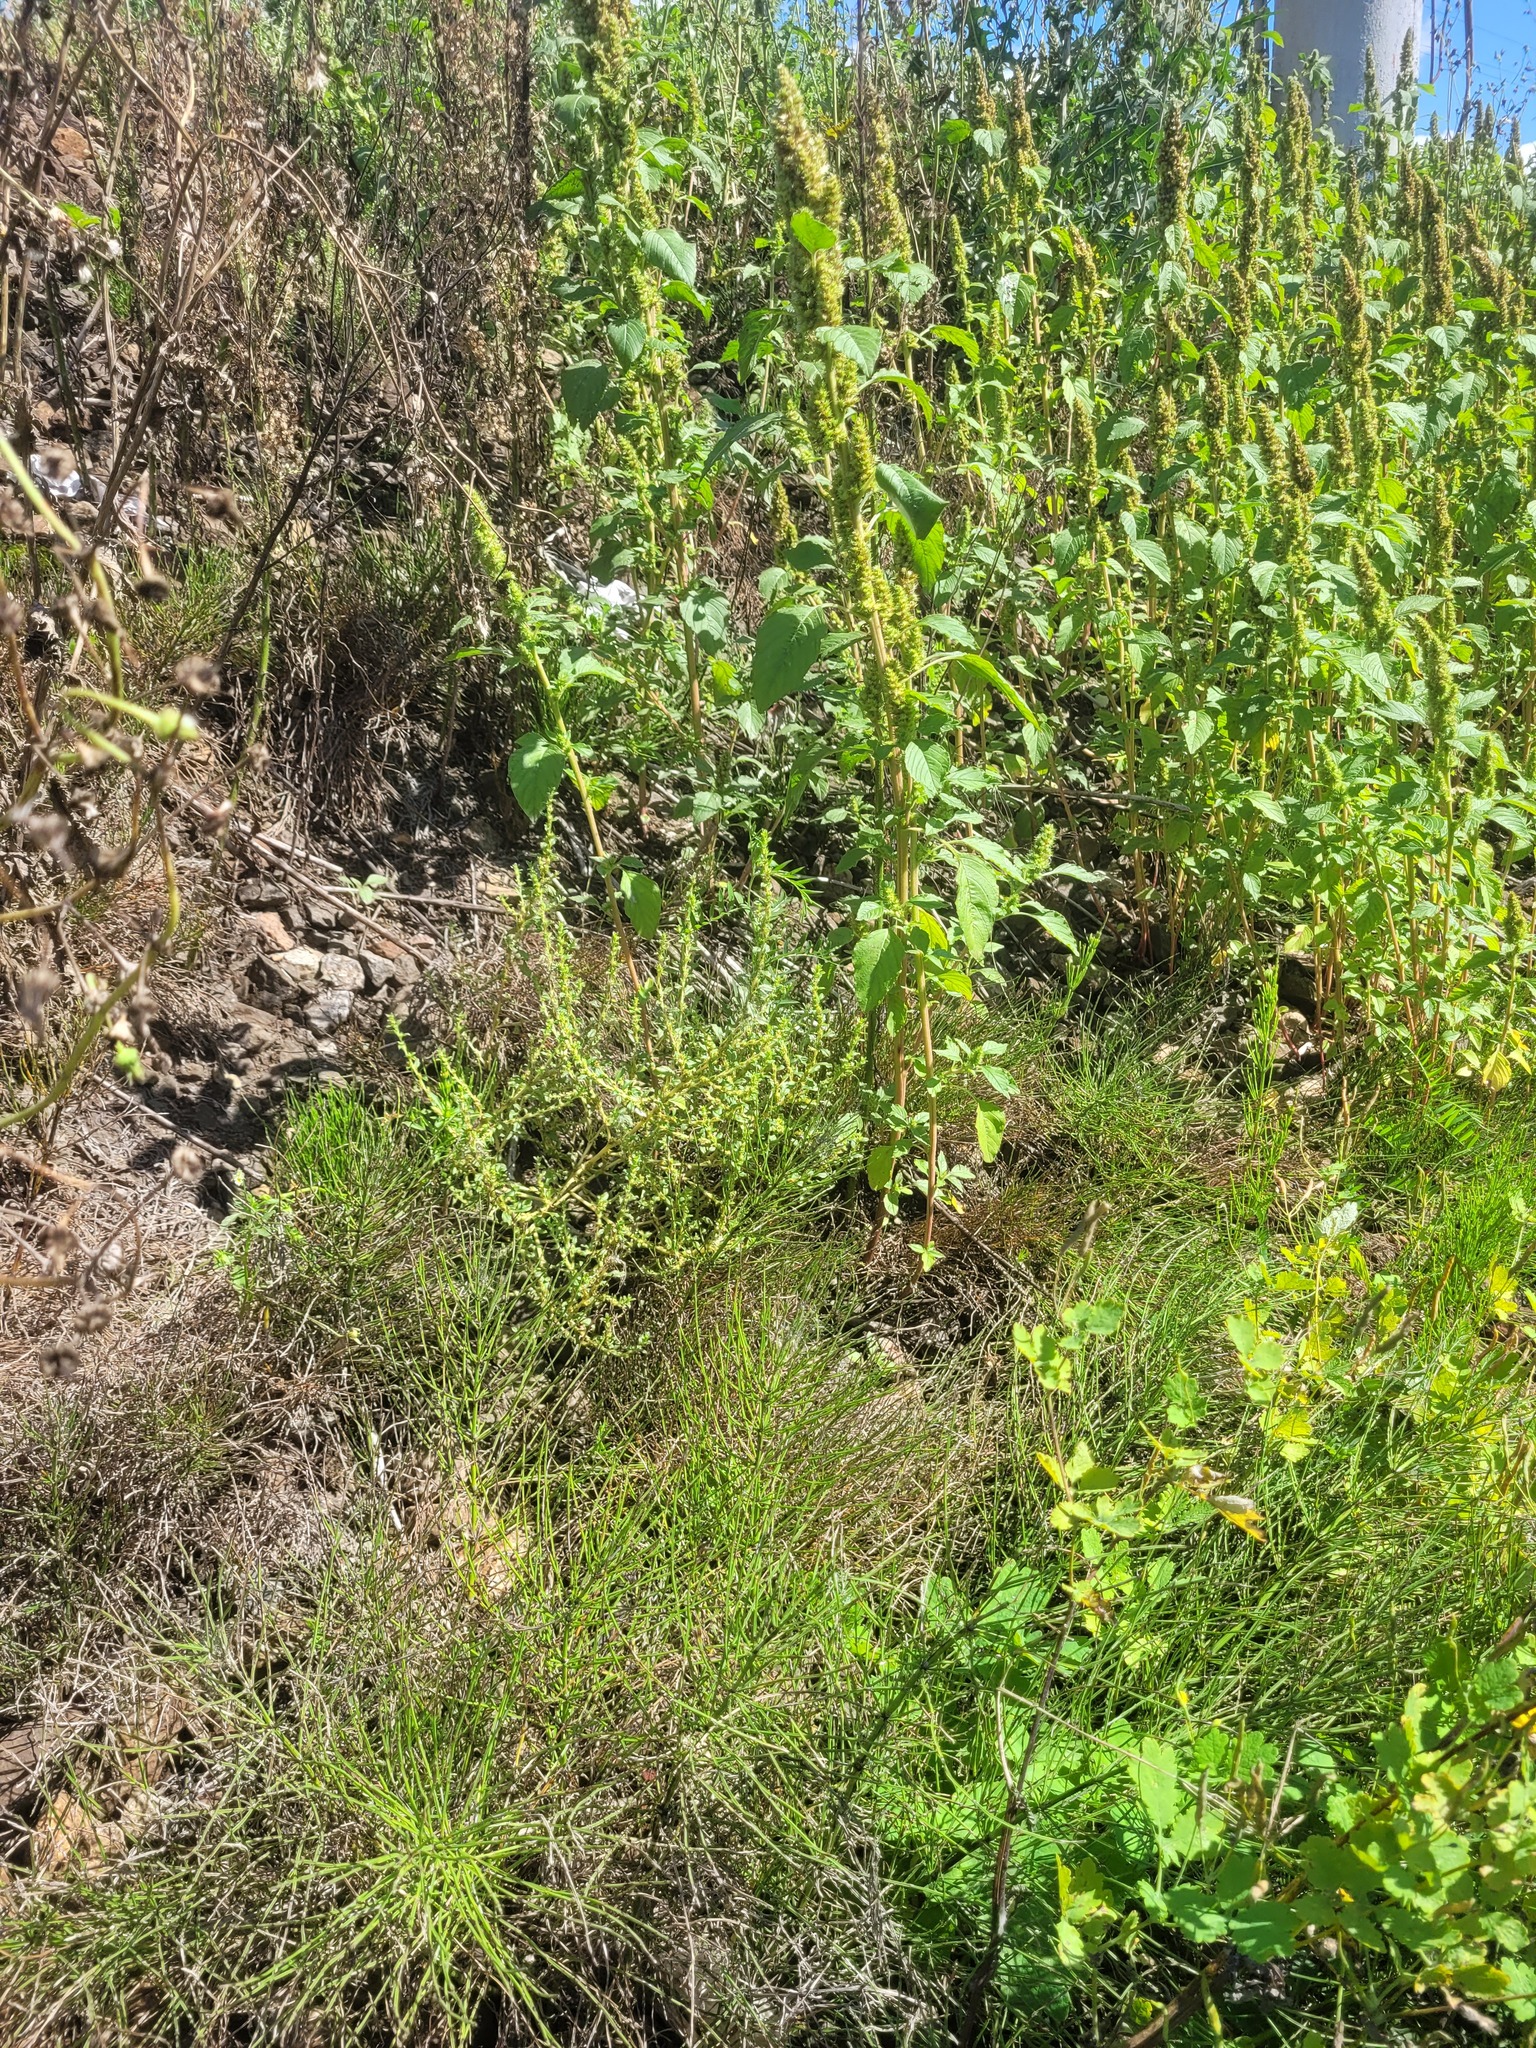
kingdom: Plantae
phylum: Tracheophyta
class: Magnoliopsida
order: Caryophyllales
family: Amaranthaceae
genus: Amaranthus
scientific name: Amaranthus albus
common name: White pigweed
